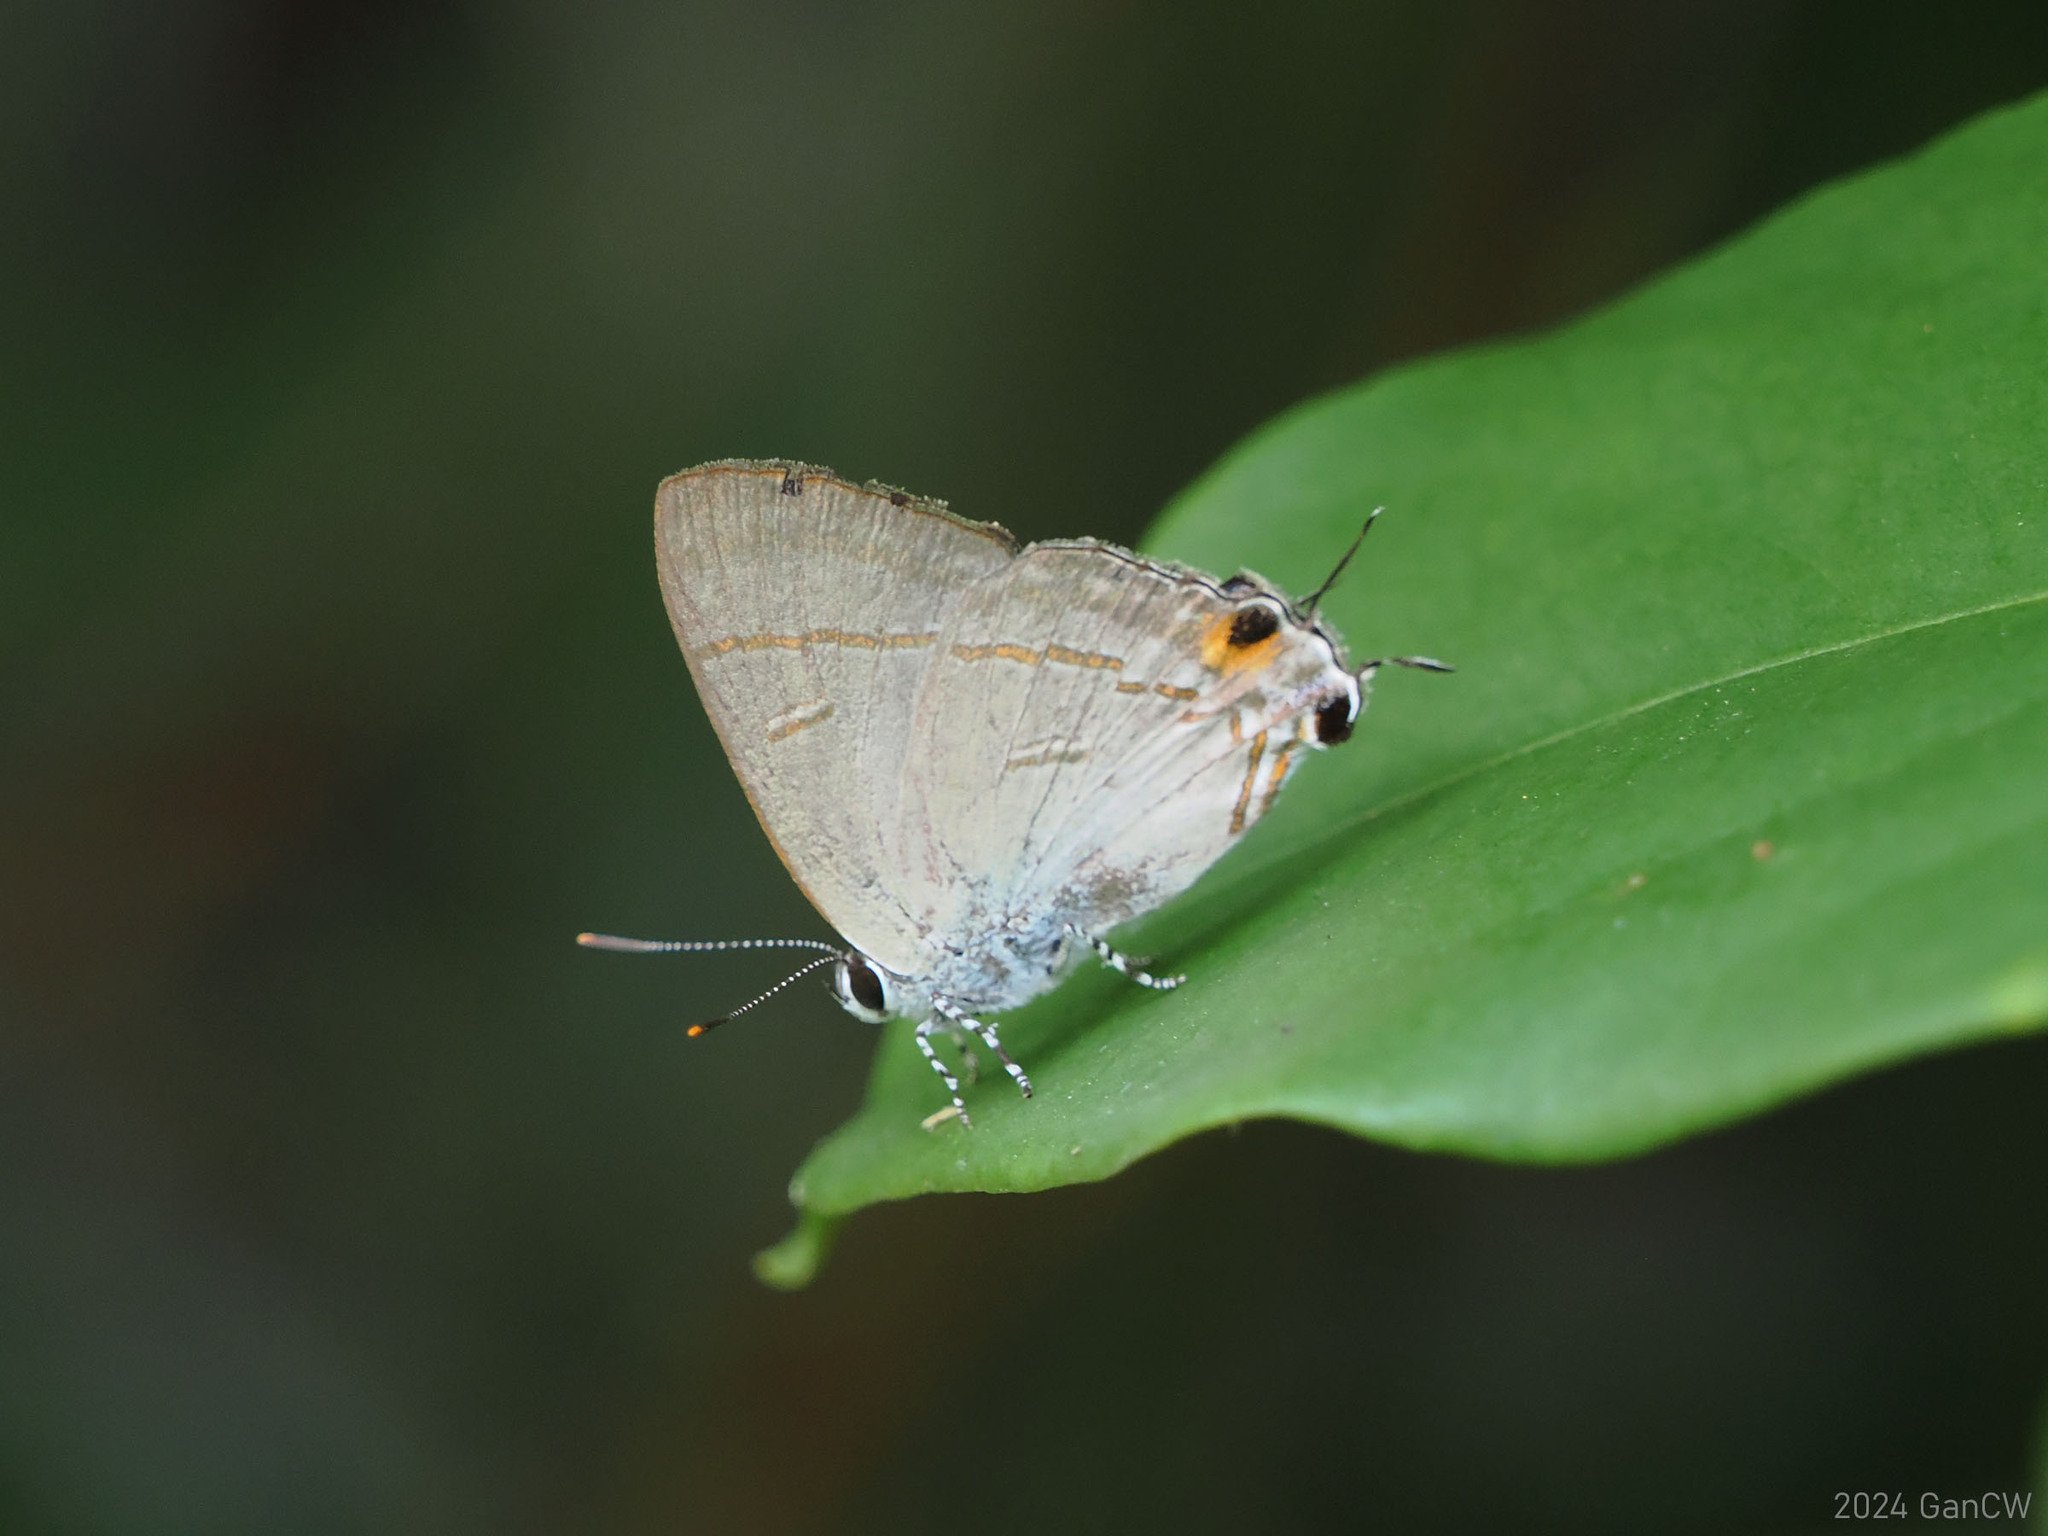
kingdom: Animalia
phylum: Arthropoda
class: Insecta
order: Lepidoptera
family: Lycaenidae
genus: Hypolycaena
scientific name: Hypolycaena erylus
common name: Common tit
